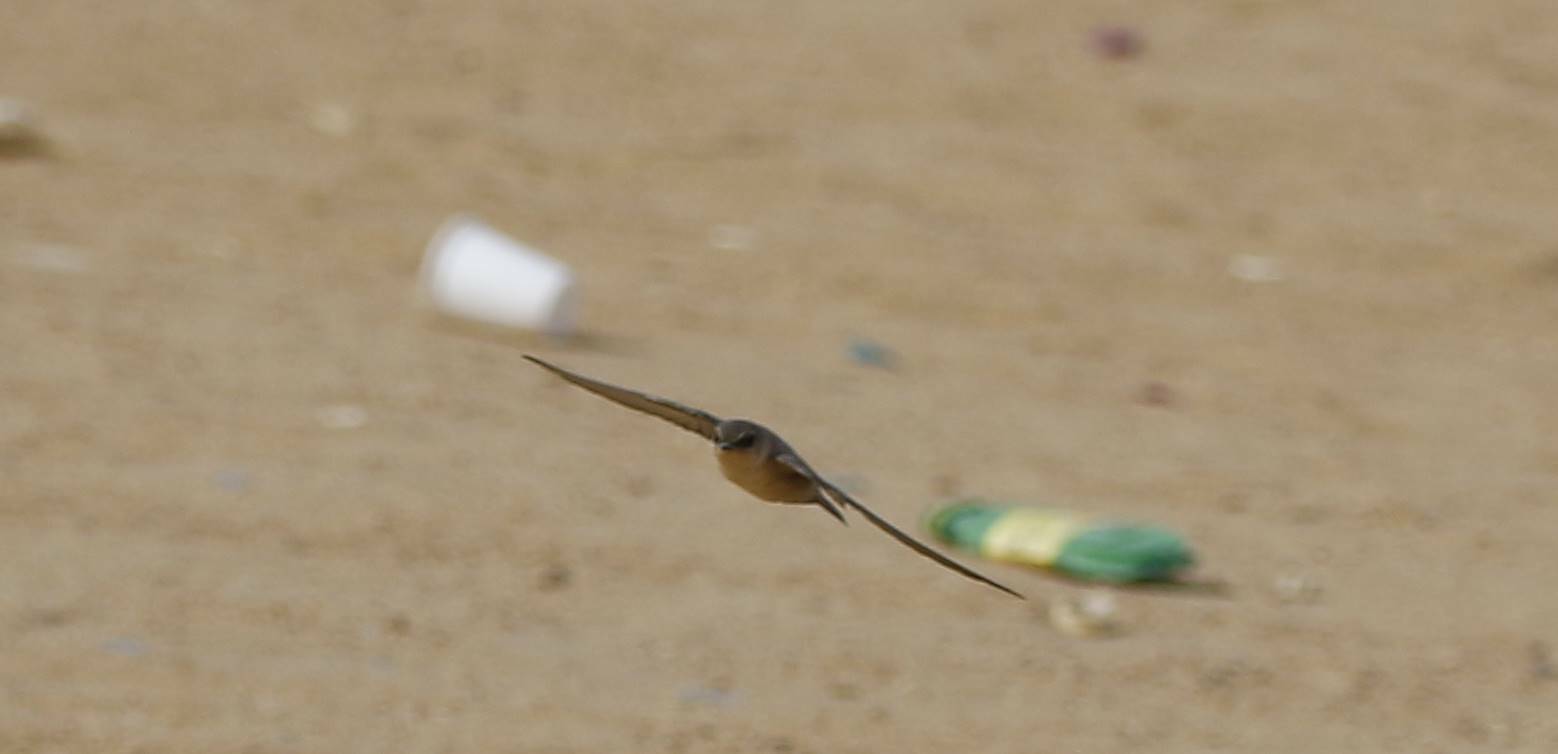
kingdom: Animalia
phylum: Chordata
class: Aves
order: Passeriformes
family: Hirundinidae
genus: Ptyonoprogne
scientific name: Ptyonoprogne fuligula
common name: Rock martin
